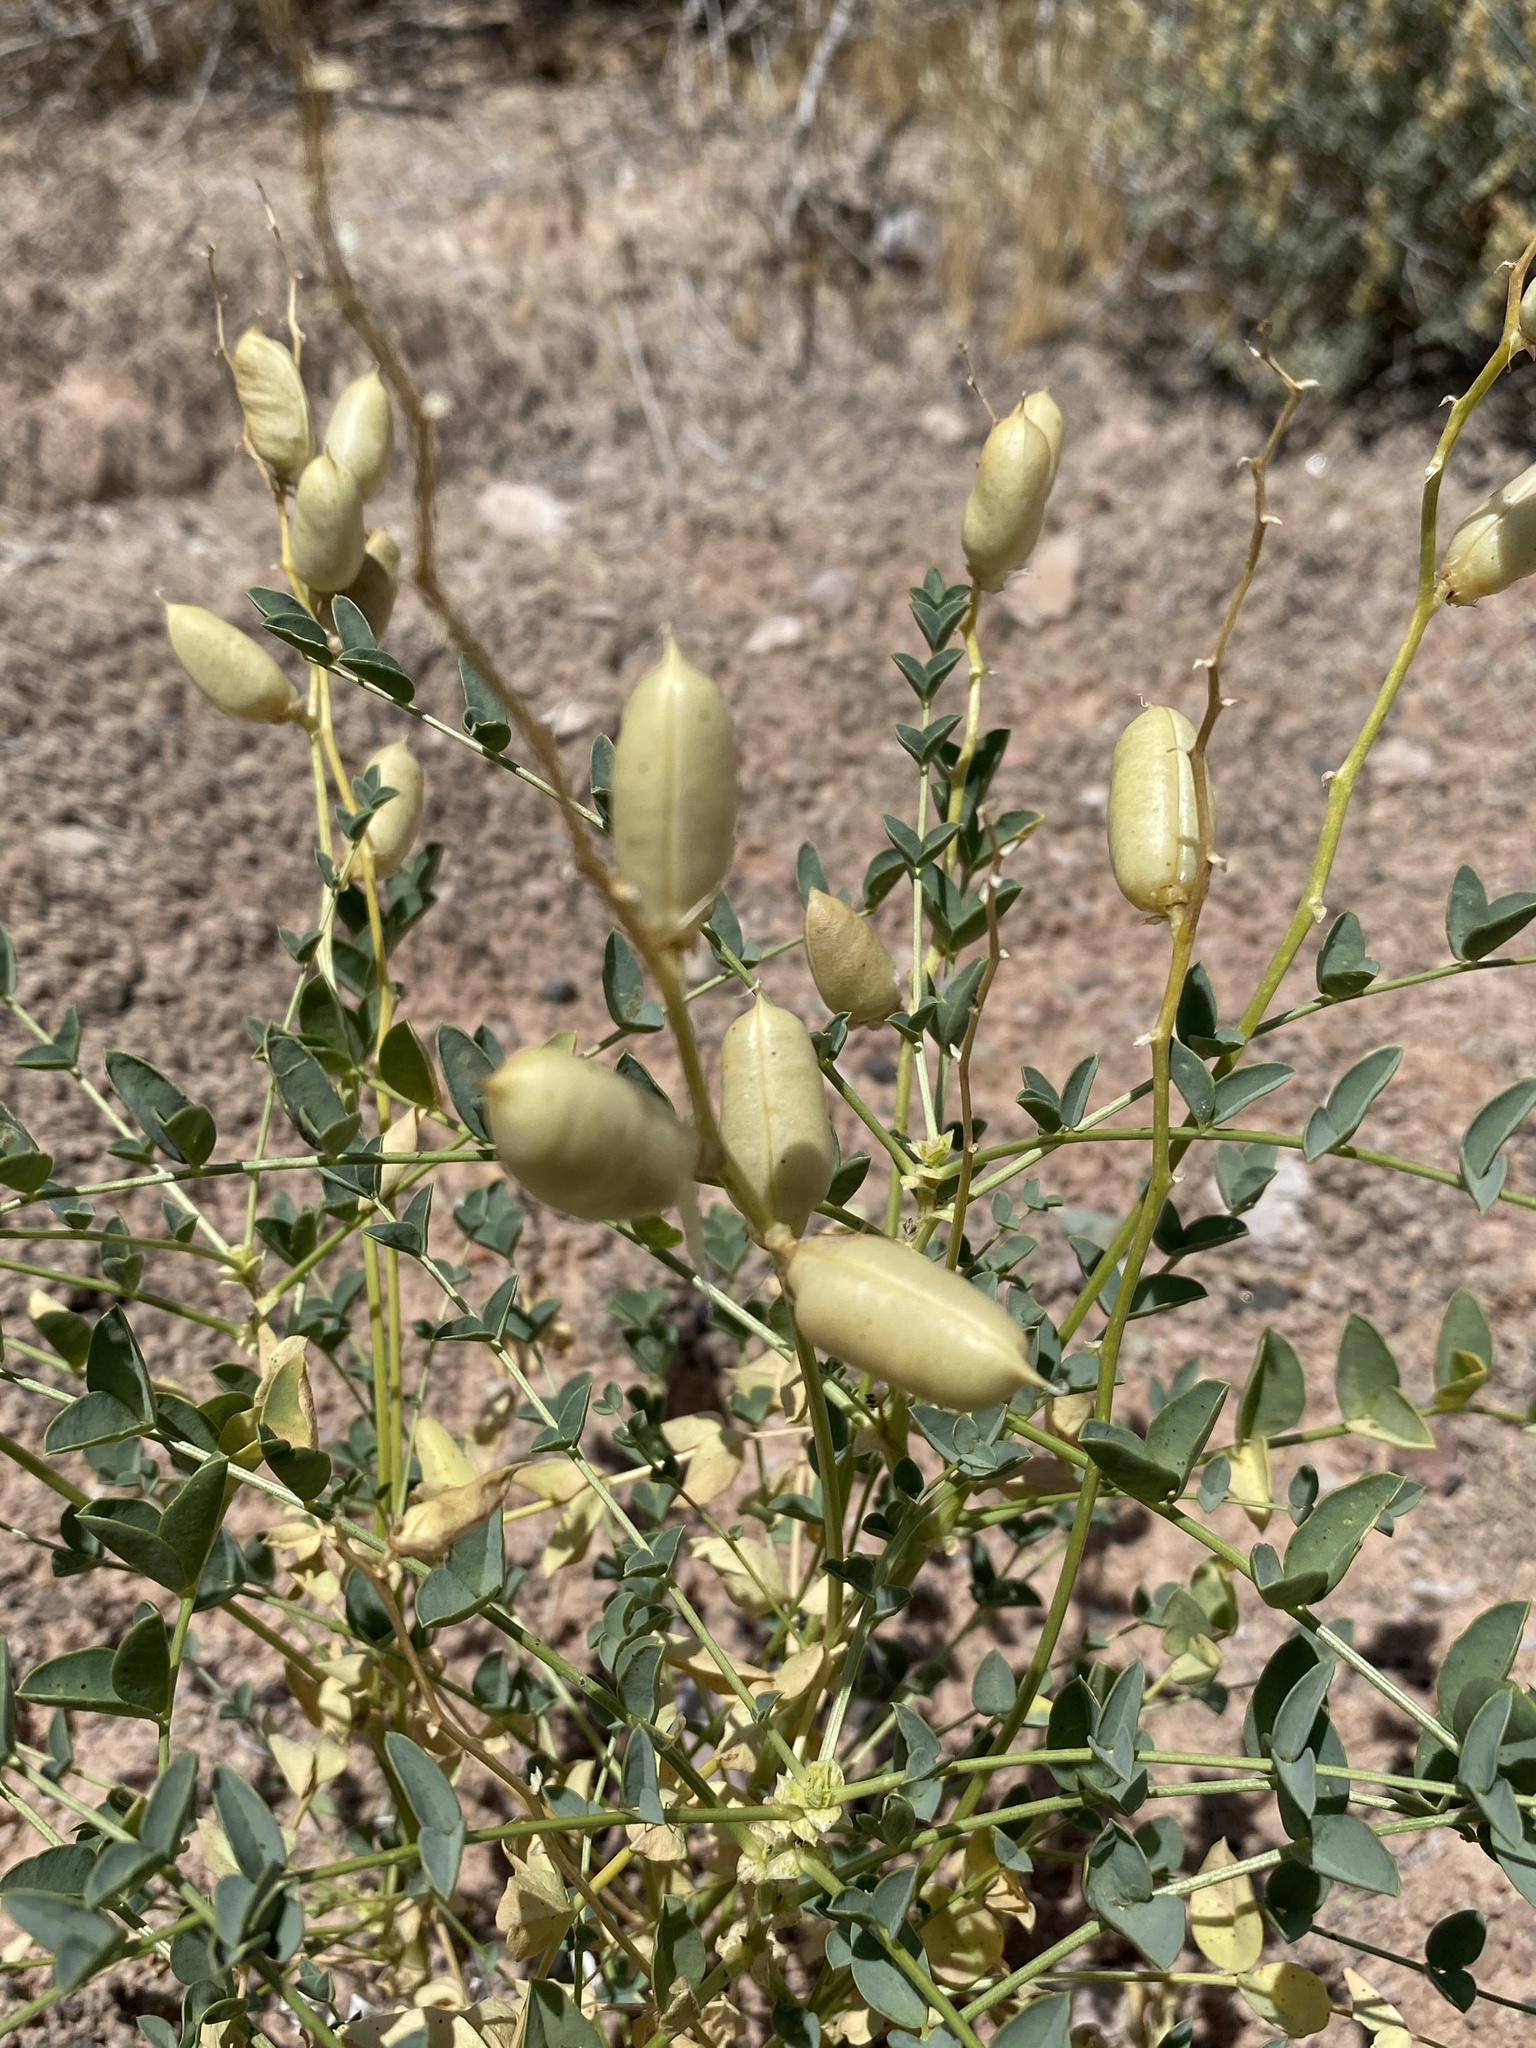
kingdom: Plantae
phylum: Tracheophyta
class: Magnoliopsida
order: Fabales
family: Fabaceae
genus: Astragalus
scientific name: Astragalus preussii
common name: Preuss's milk-vetch
